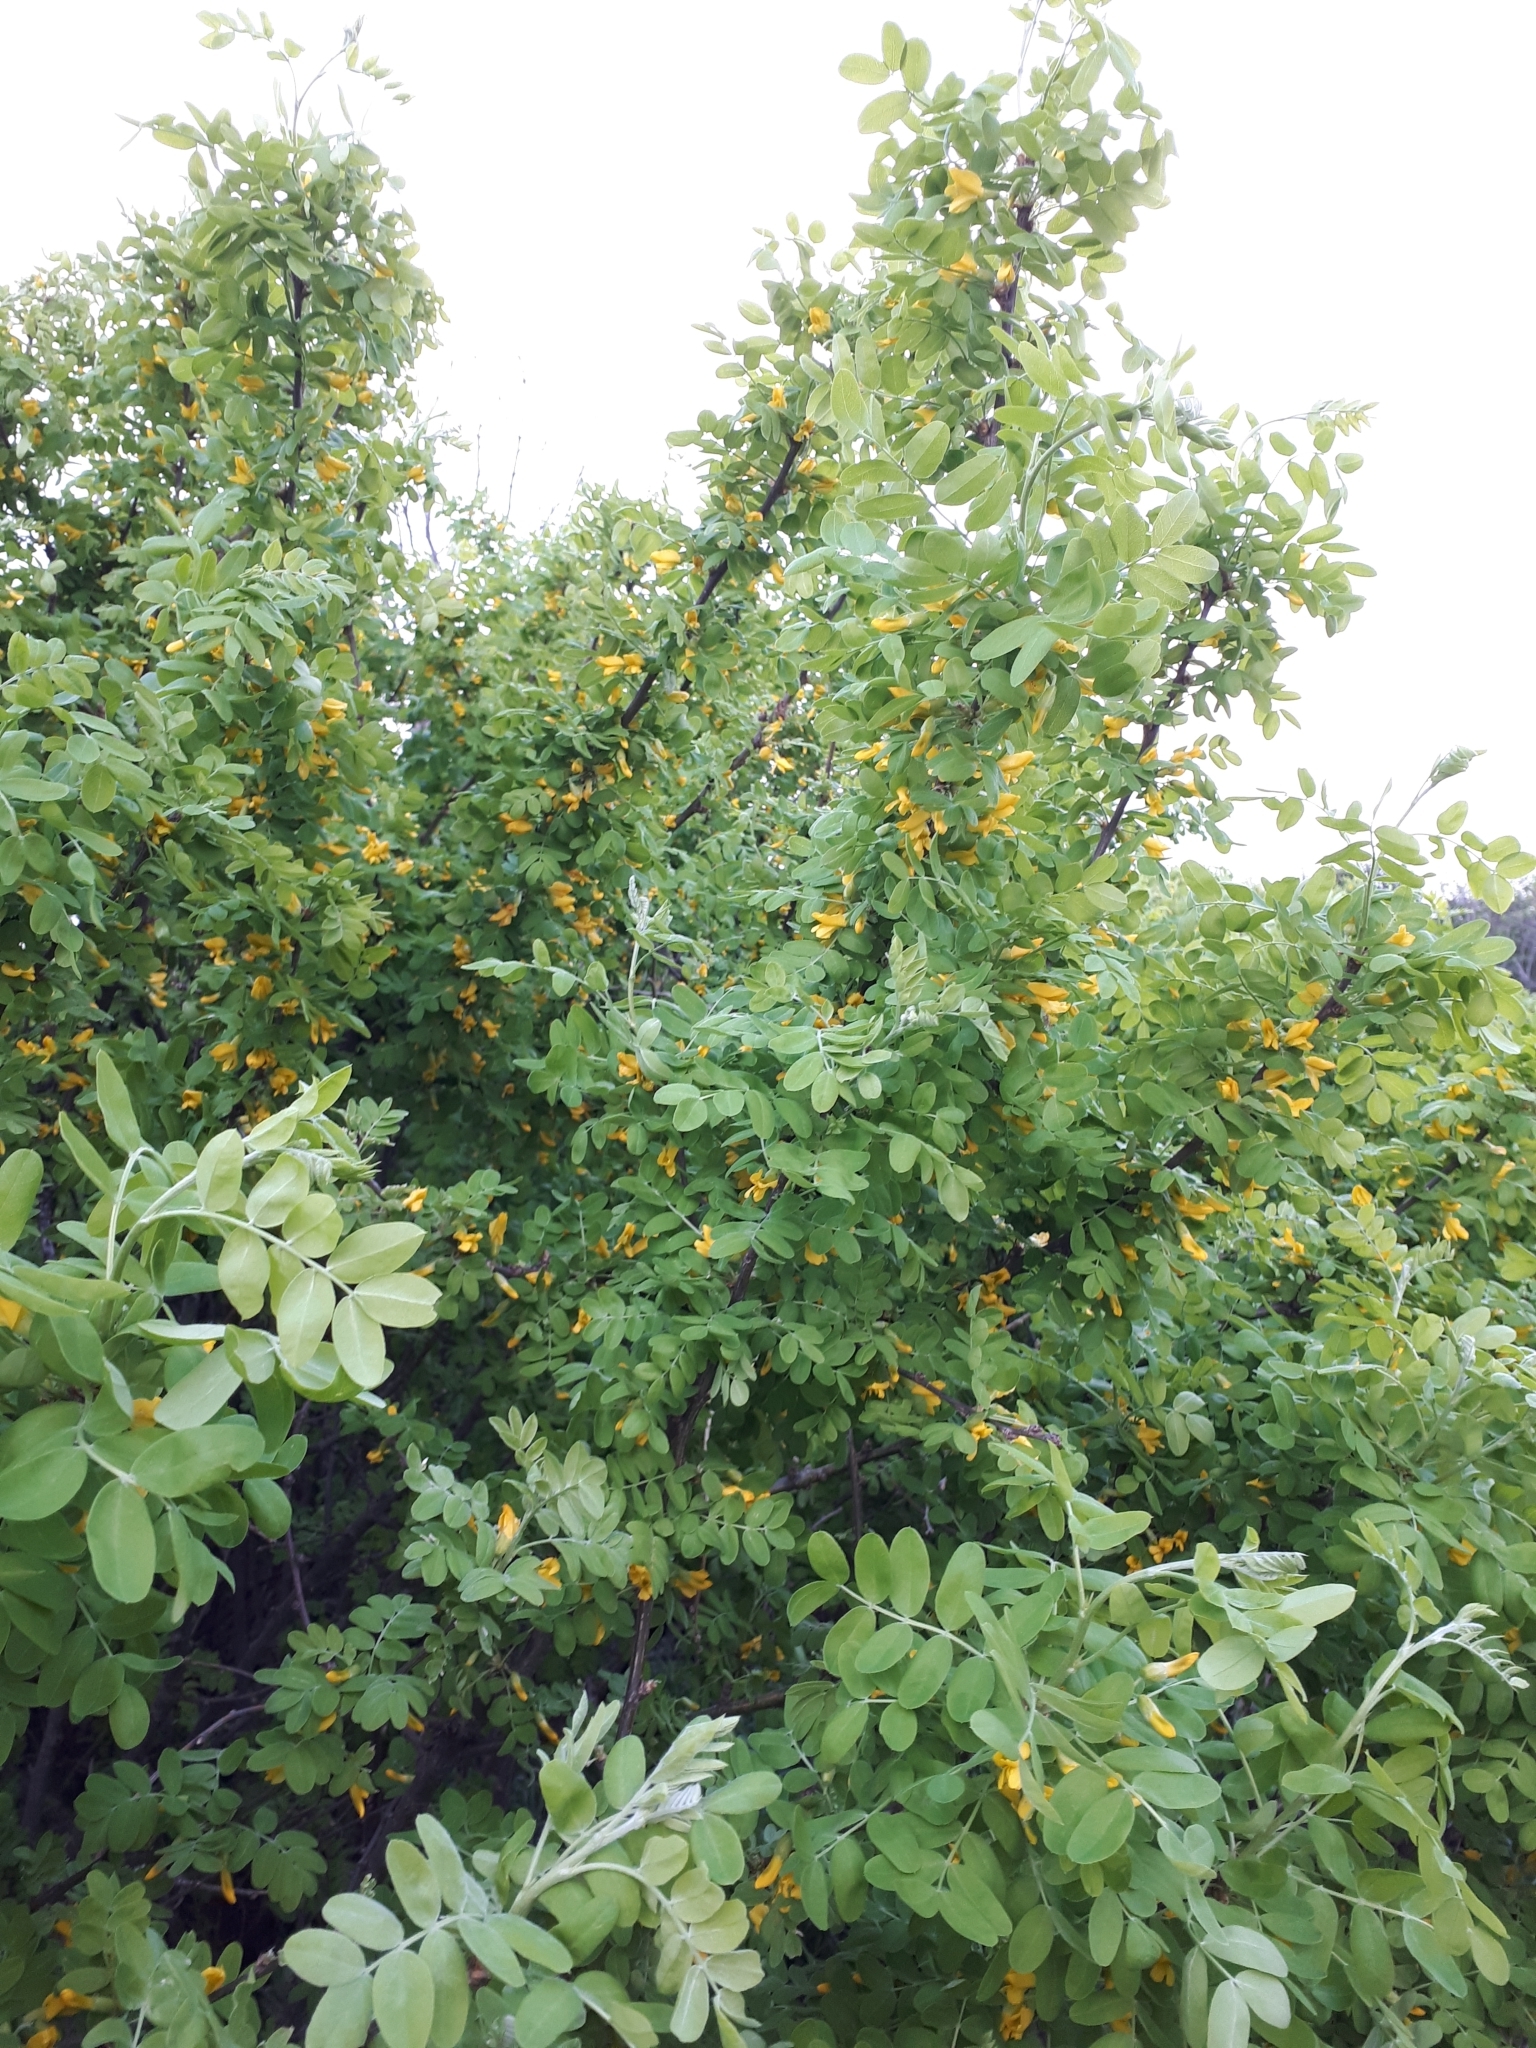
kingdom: Plantae
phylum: Tracheophyta
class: Magnoliopsida
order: Fabales
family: Fabaceae
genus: Caragana
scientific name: Caragana arborescens
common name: Siberian peashrub
